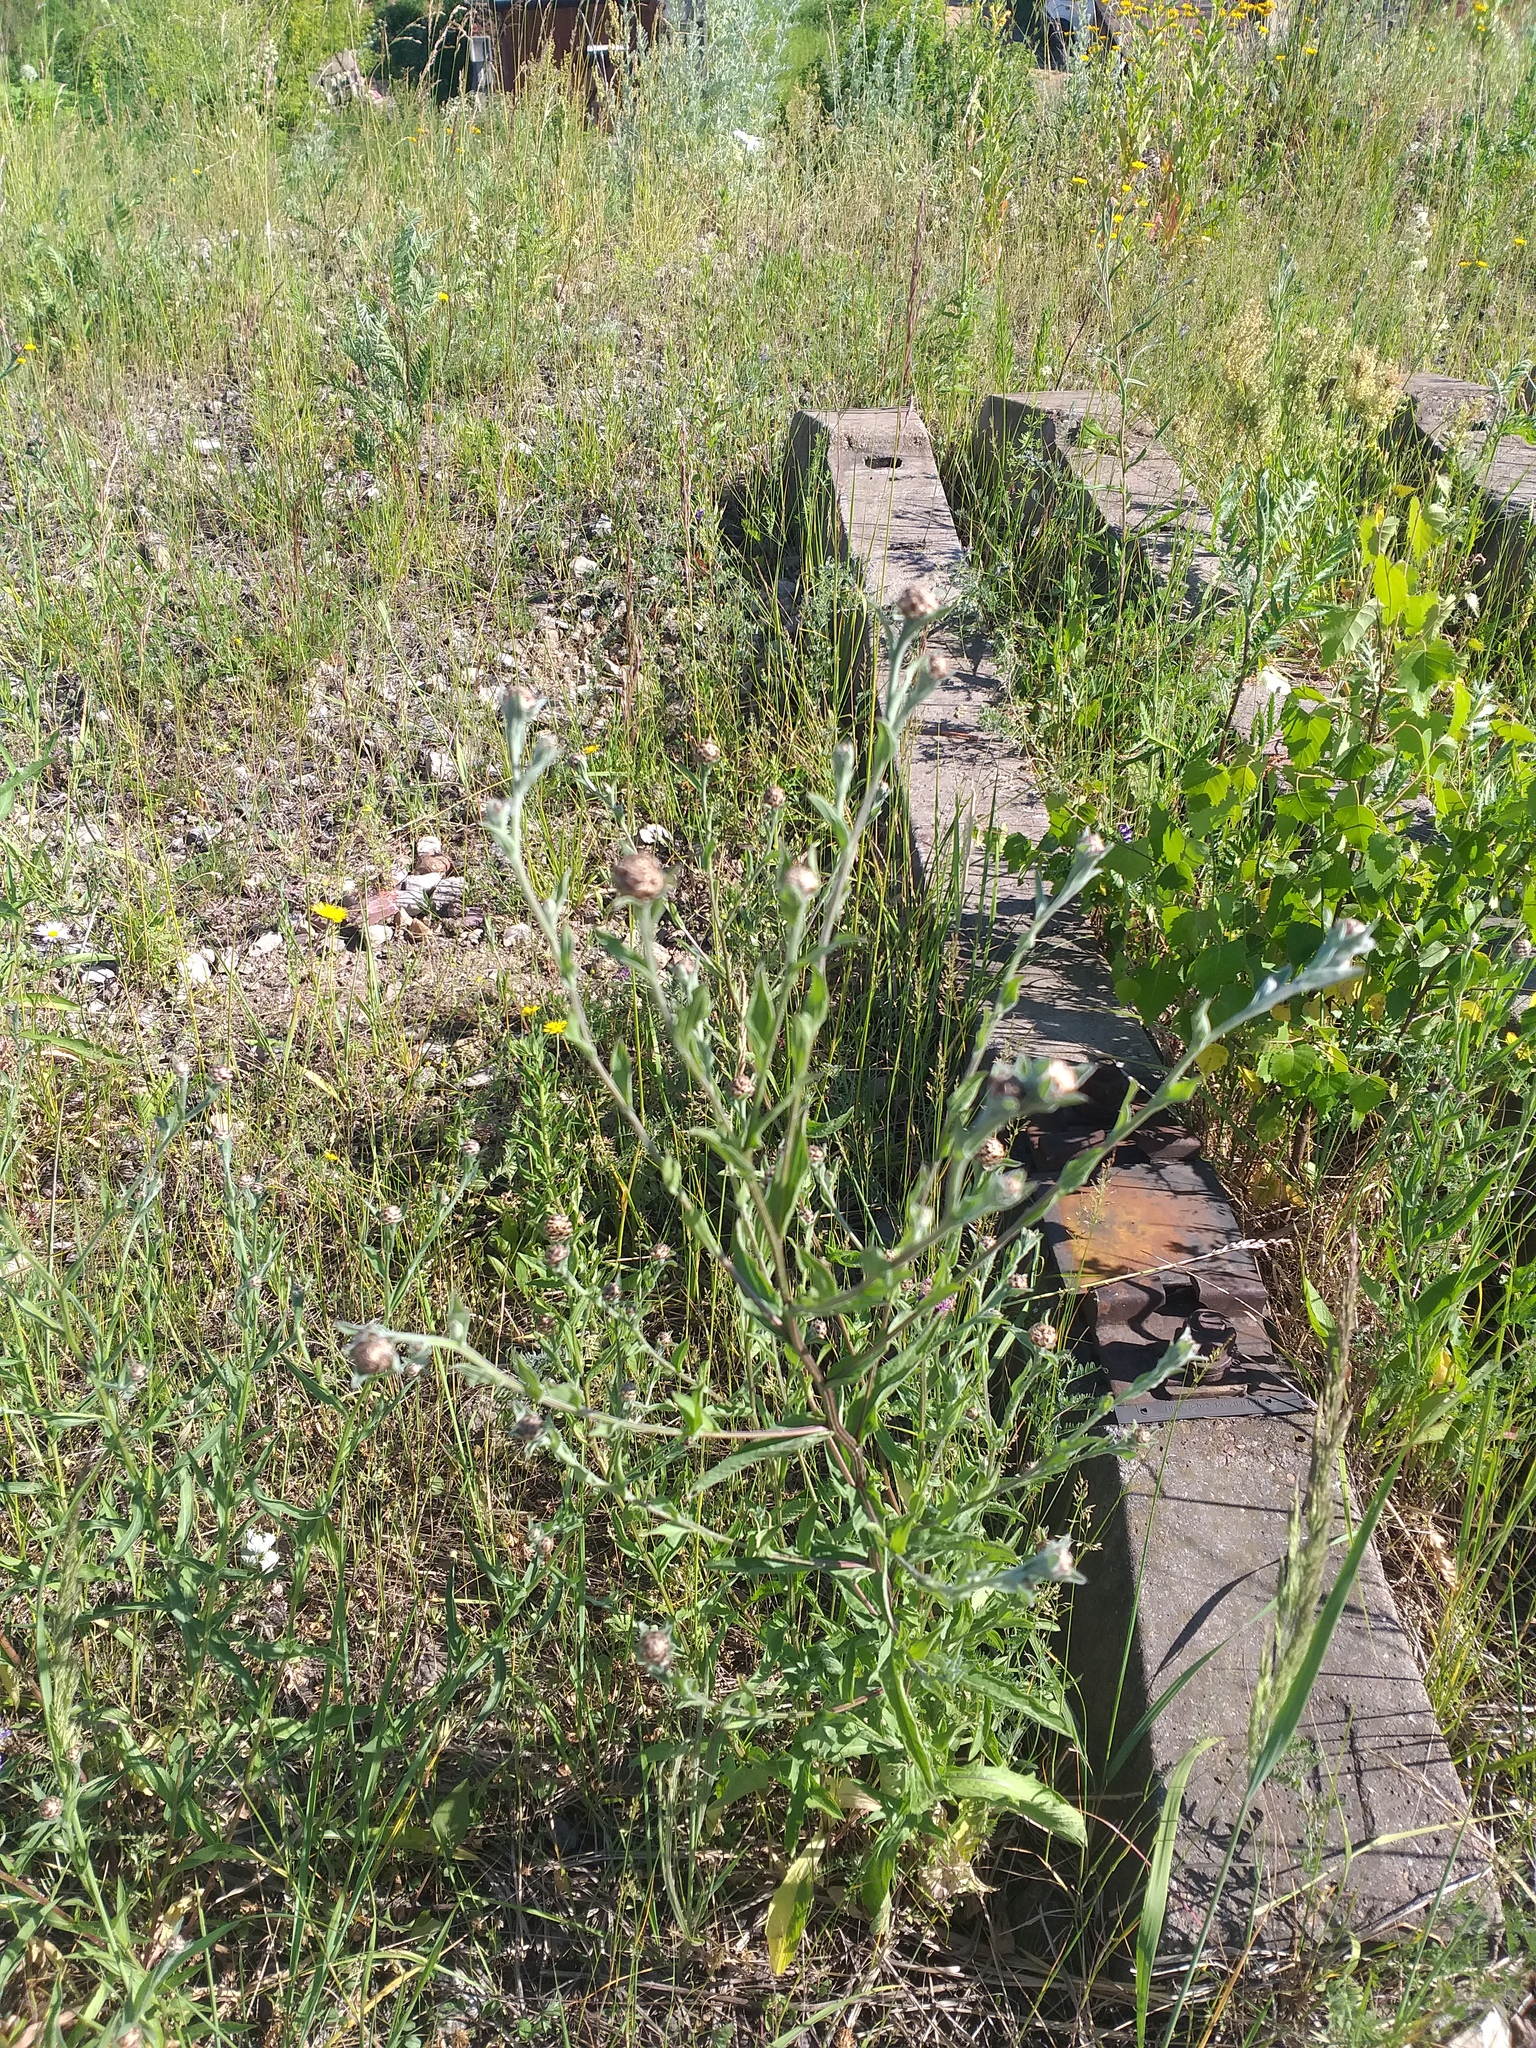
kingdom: Plantae
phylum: Tracheophyta
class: Magnoliopsida
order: Asterales
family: Asteraceae
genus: Centaurea
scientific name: Centaurea jacea
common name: Brown knapweed
